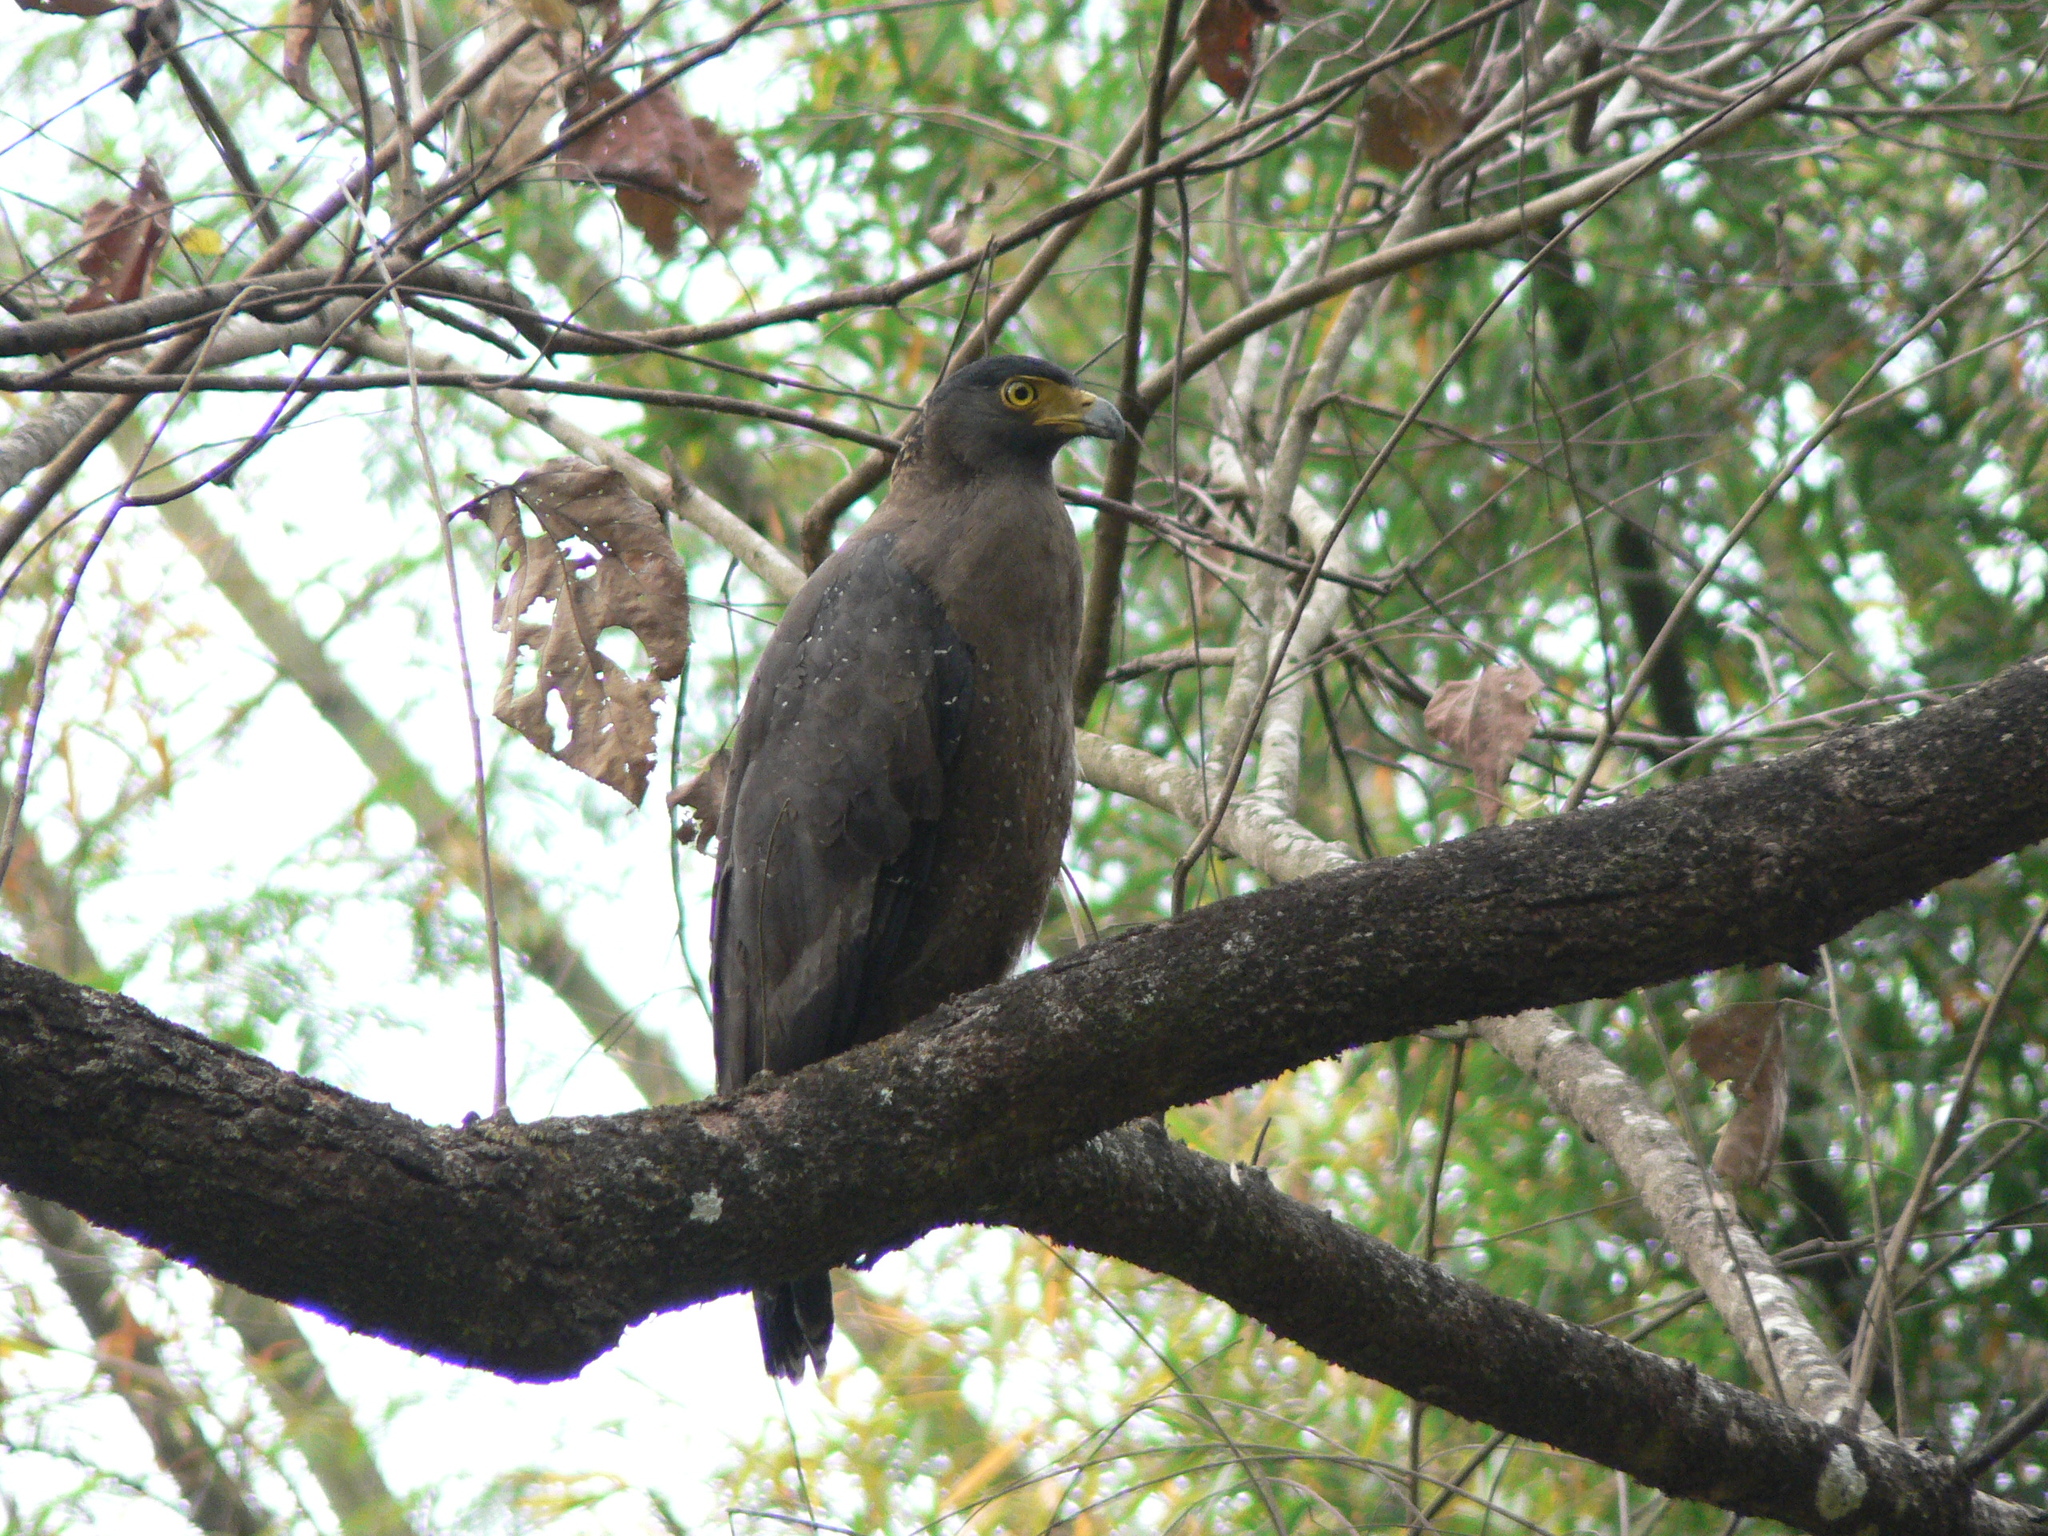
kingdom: Animalia
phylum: Chordata
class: Aves
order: Accipitriformes
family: Accipitridae
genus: Spilornis
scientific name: Spilornis cheela
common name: Crested serpent eagle
